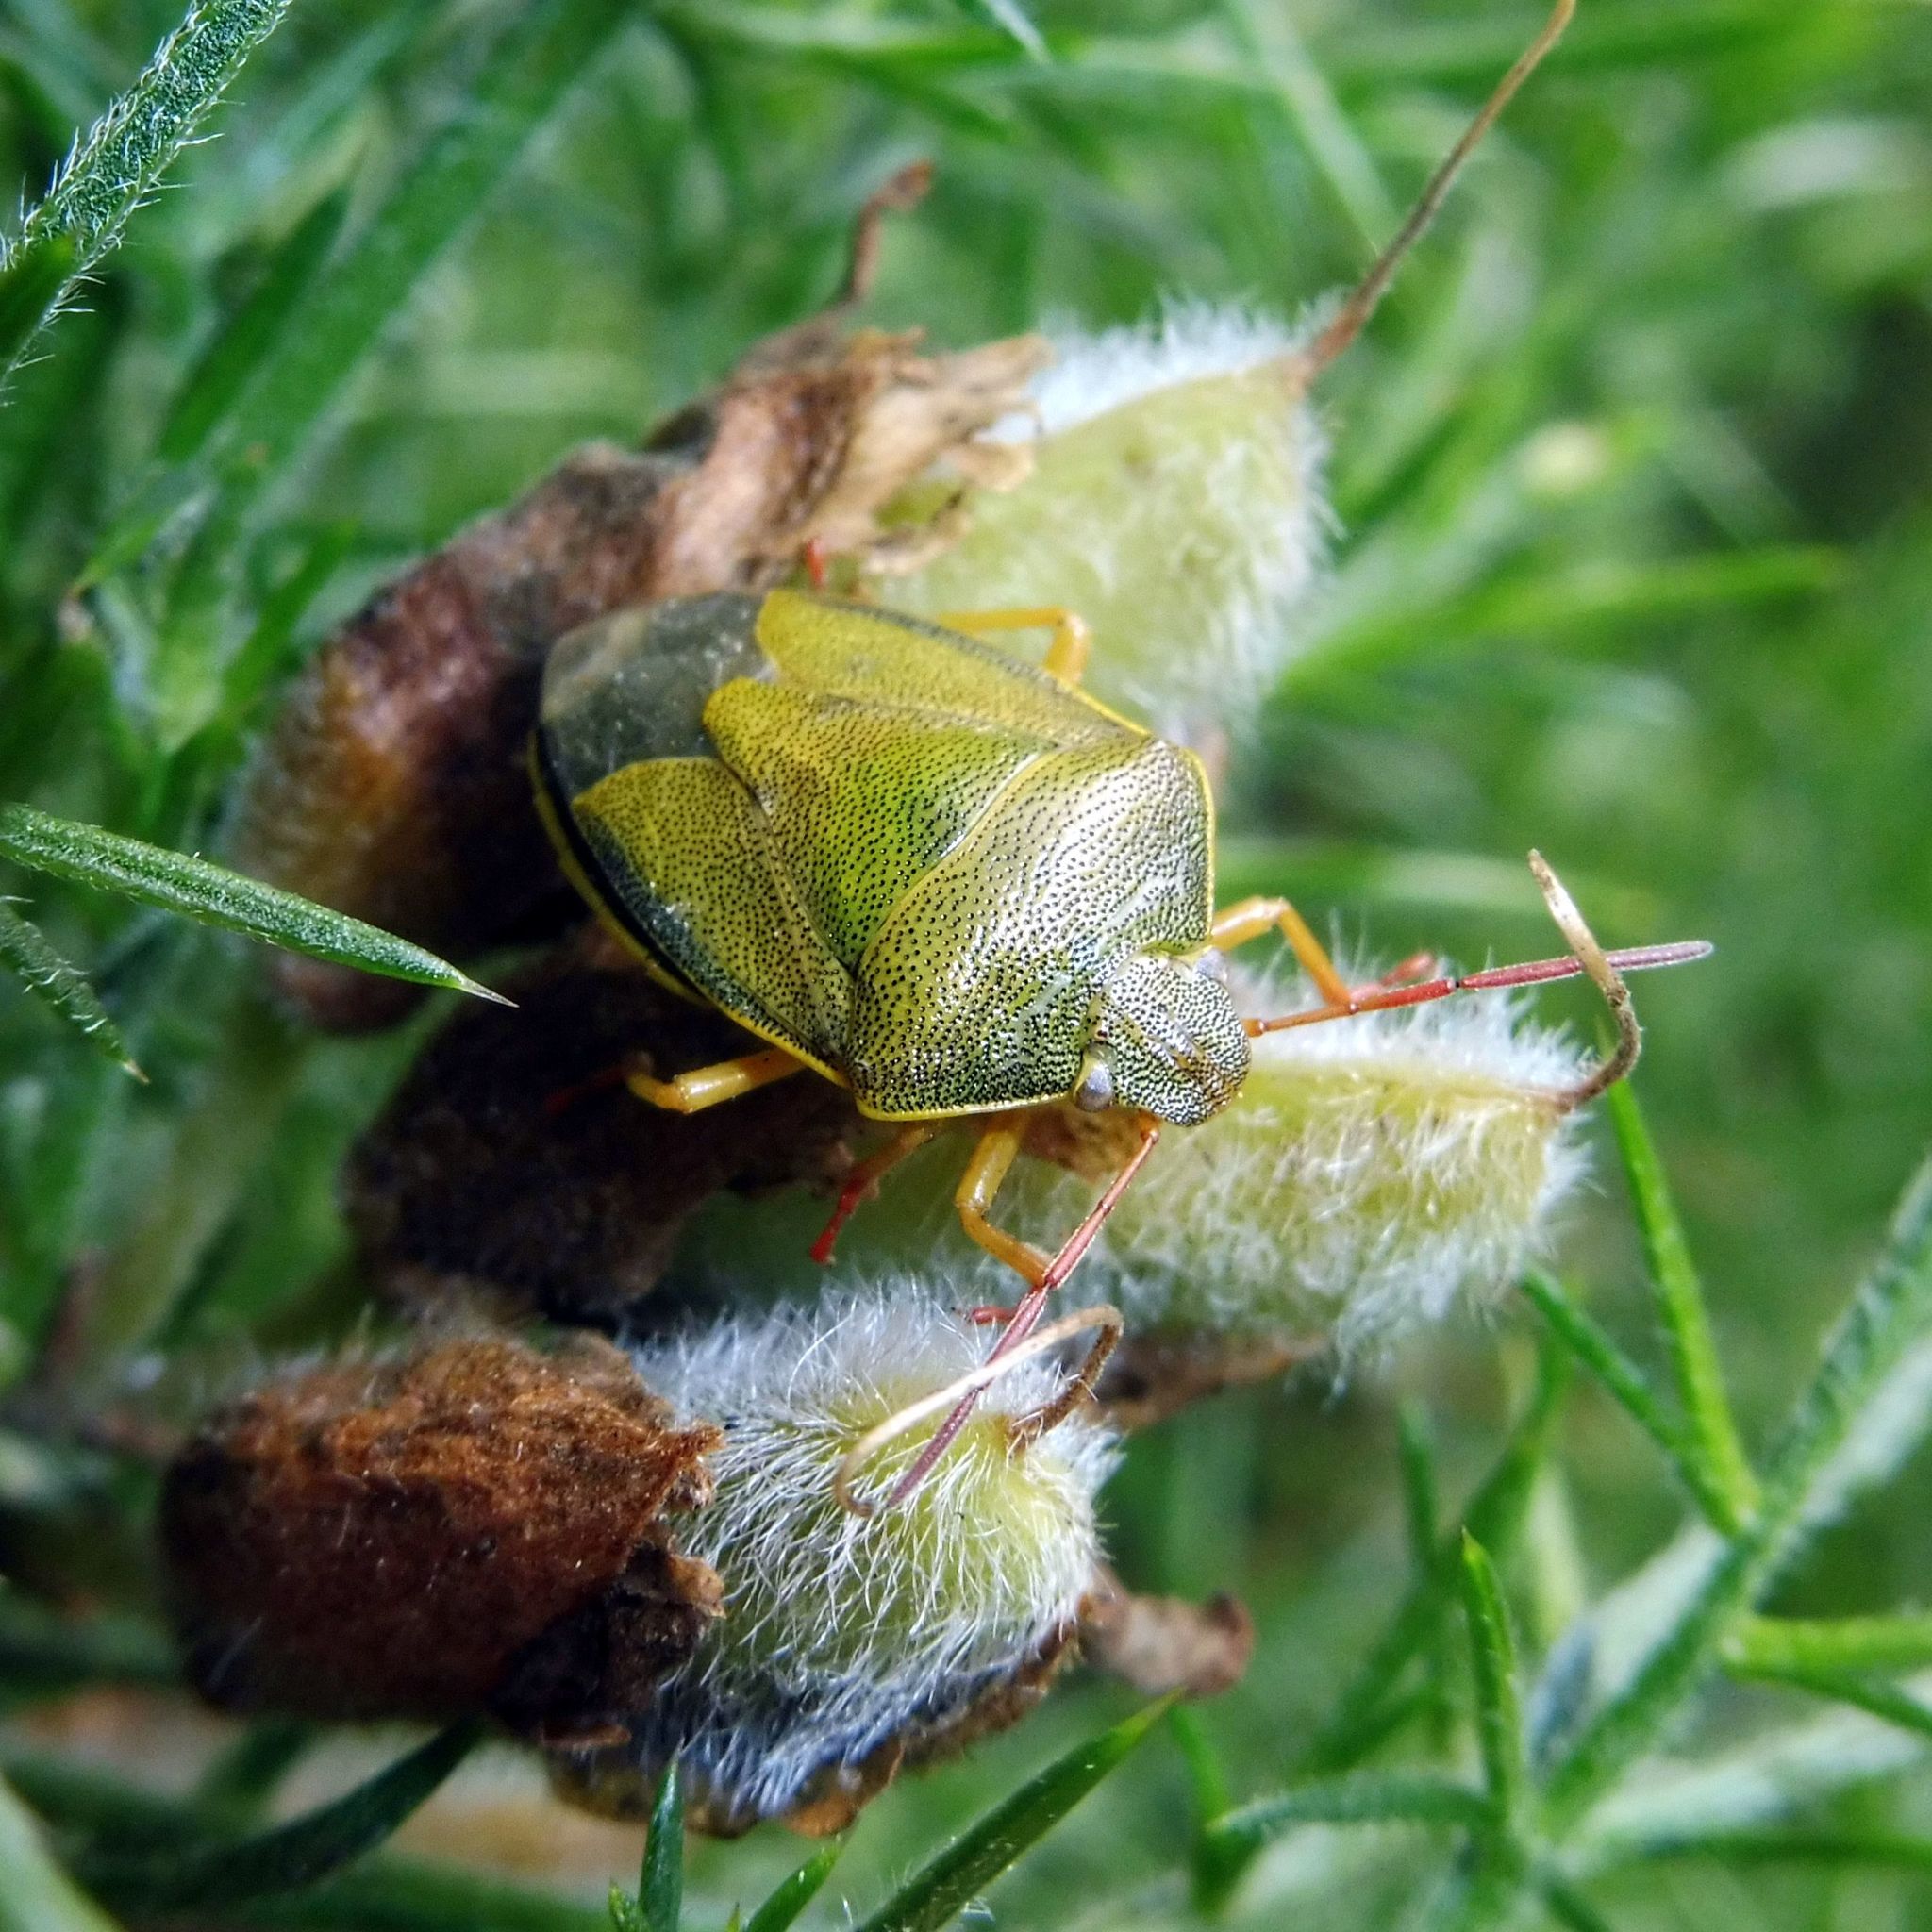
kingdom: Animalia
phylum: Arthropoda
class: Insecta
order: Hemiptera
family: Pentatomidae
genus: Piezodorus
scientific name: Piezodorus lituratus
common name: Stink bug
